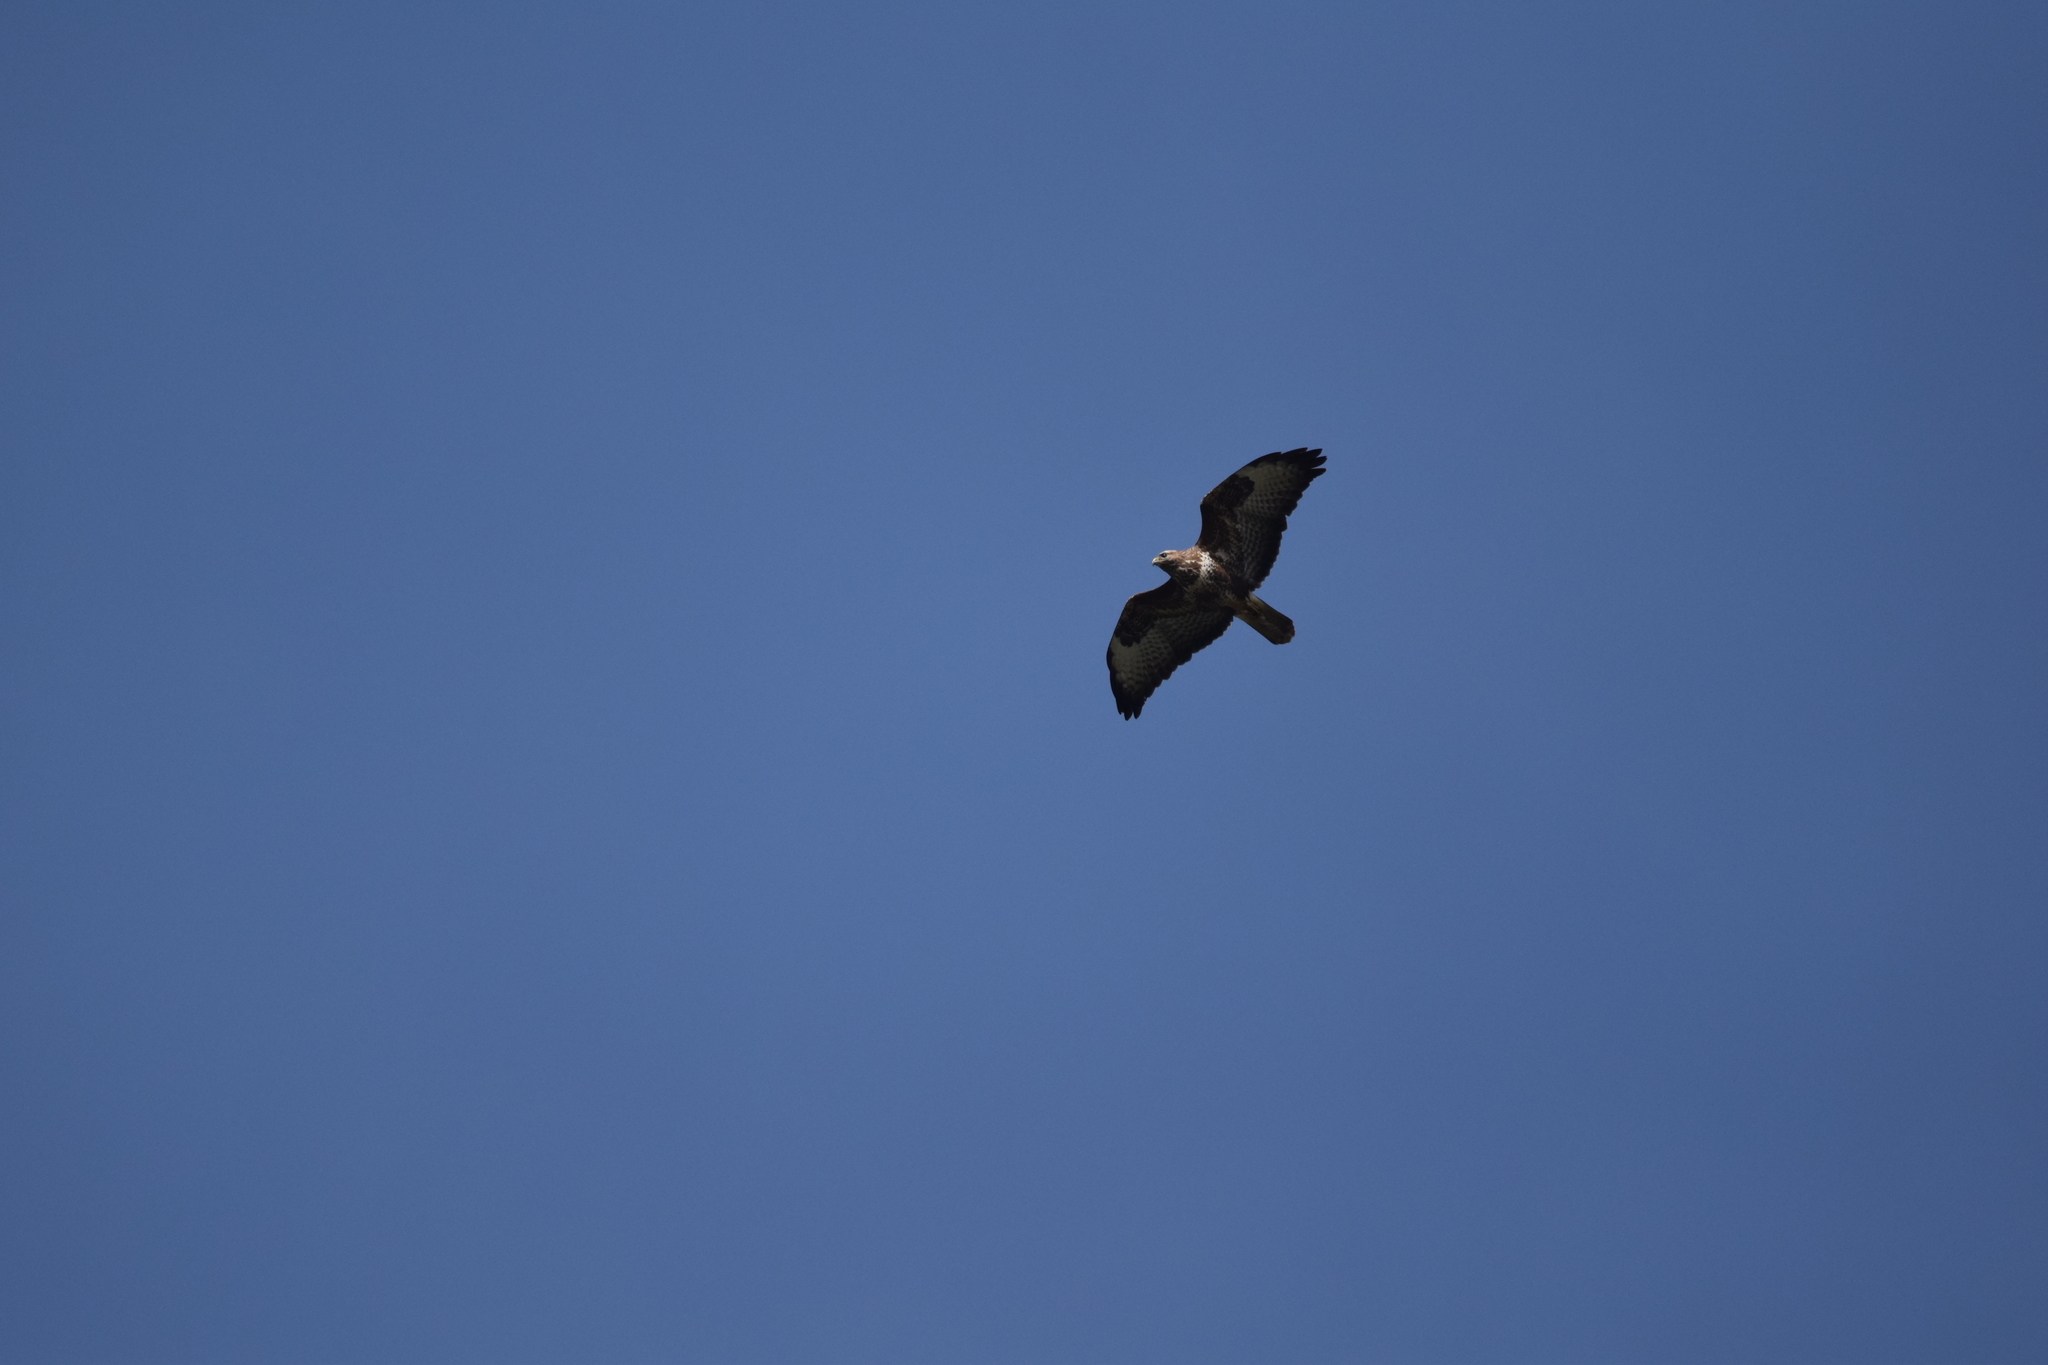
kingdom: Animalia
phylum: Chordata
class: Aves
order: Accipitriformes
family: Accipitridae
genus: Buteo
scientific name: Buteo buteo
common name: Common buzzard
